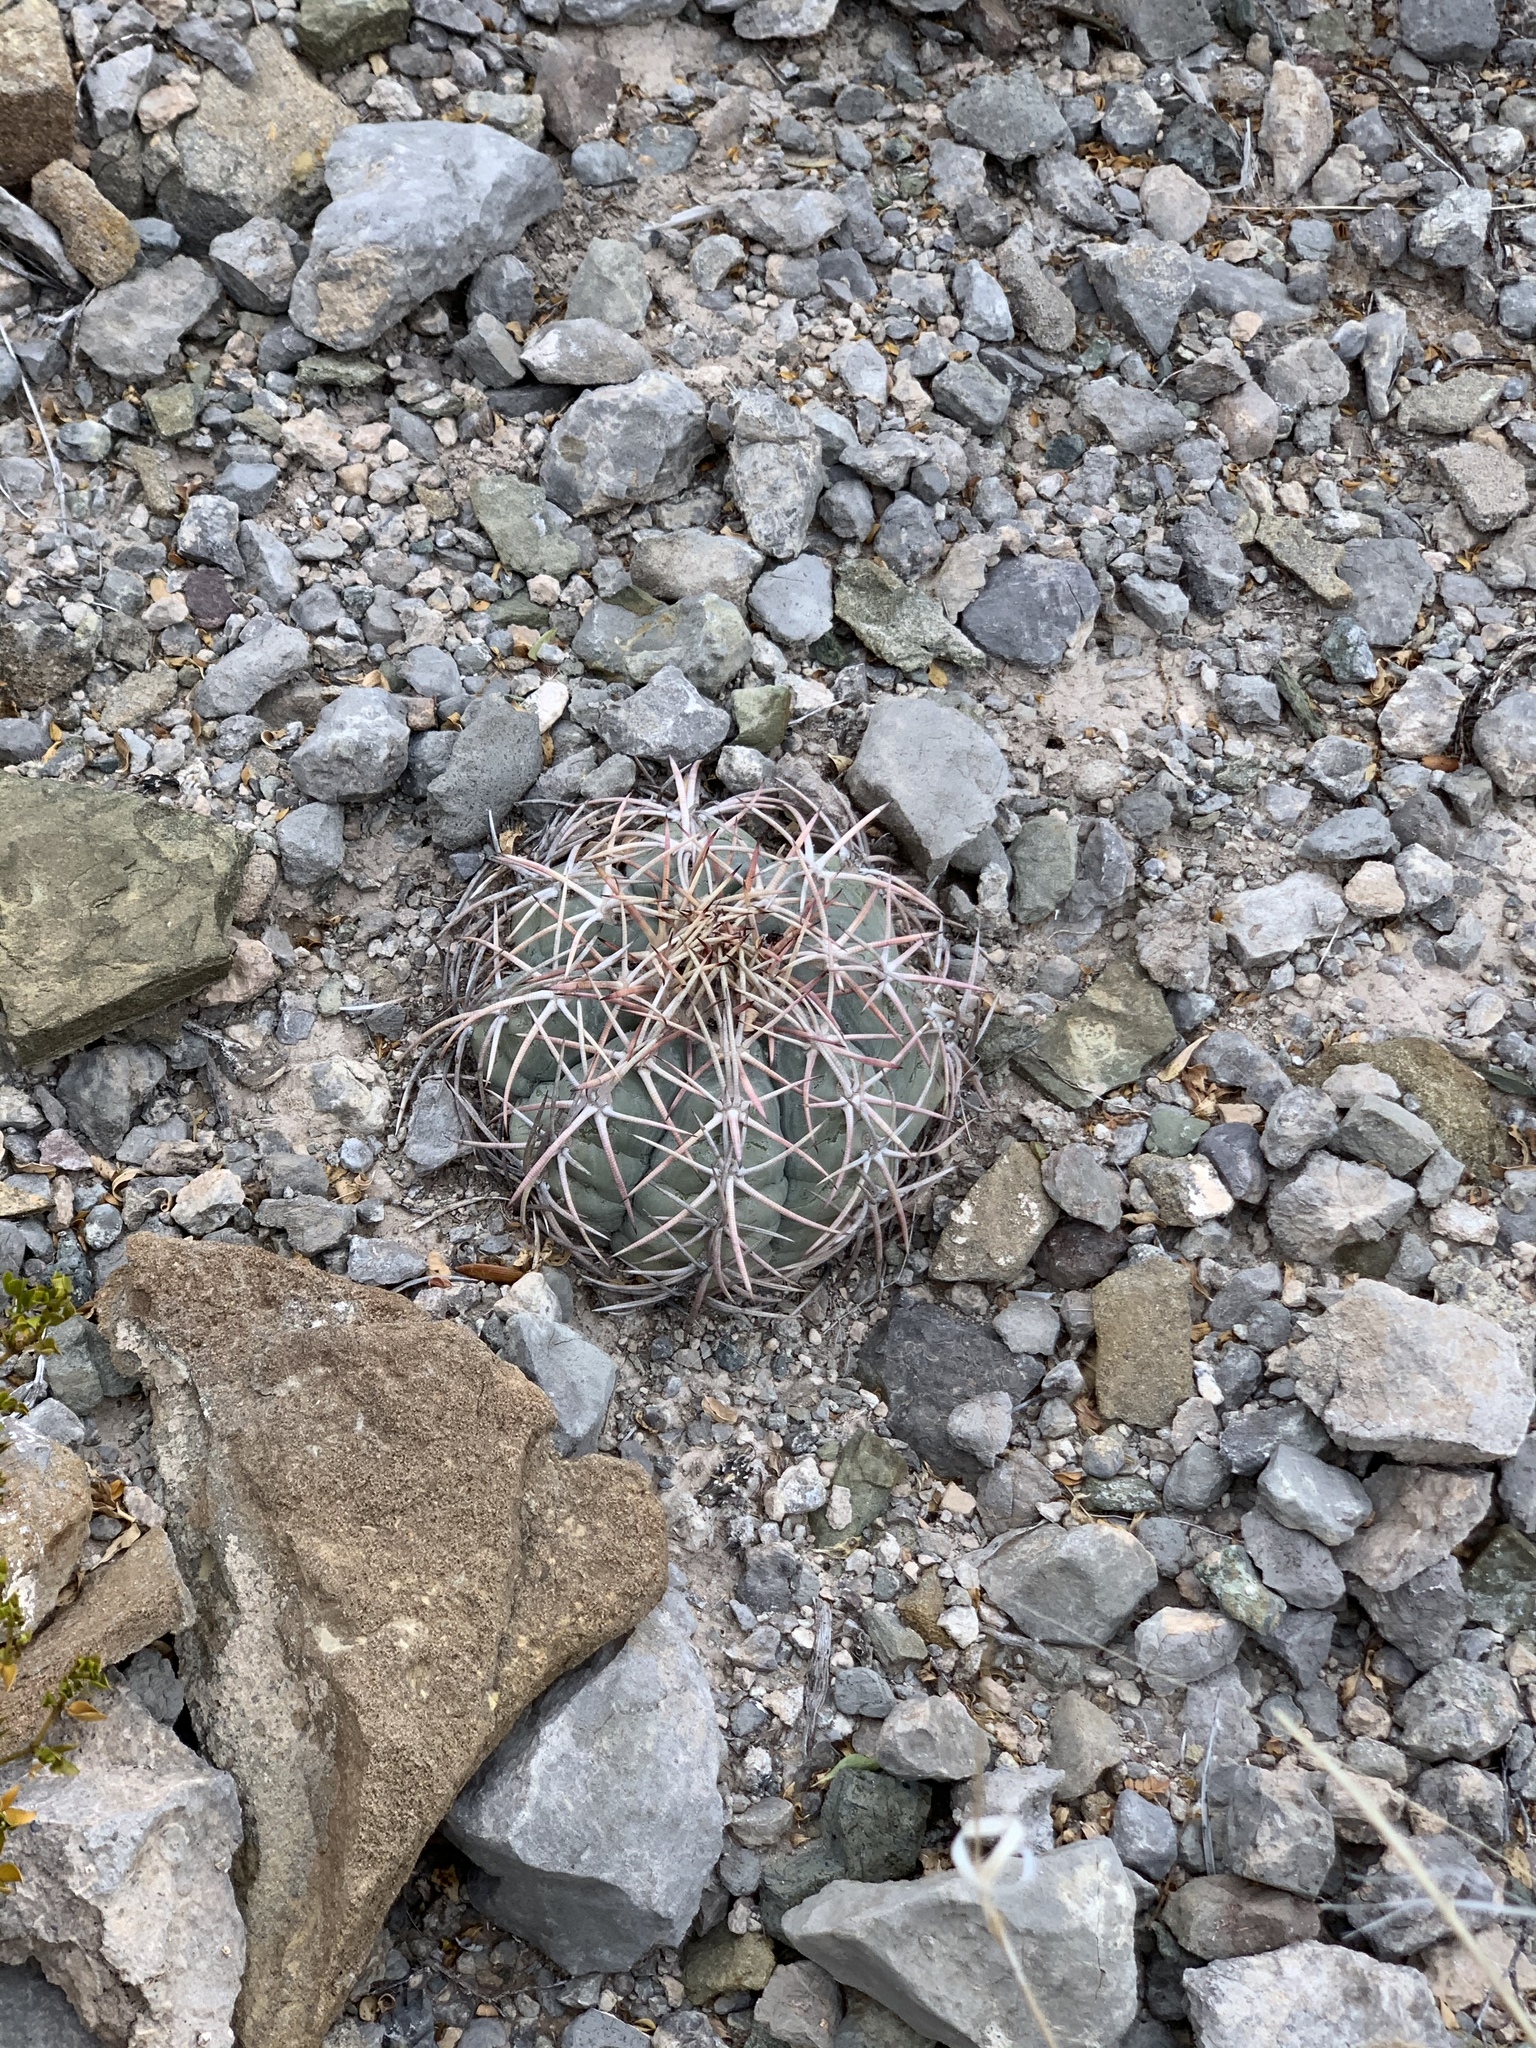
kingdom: Plantae
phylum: Tracheophyta
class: Magnoliopsida
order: Caryophyllales
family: Cactaceae
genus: Echinocactus
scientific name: Echinocactus horizonthalonius
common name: Devilshead
